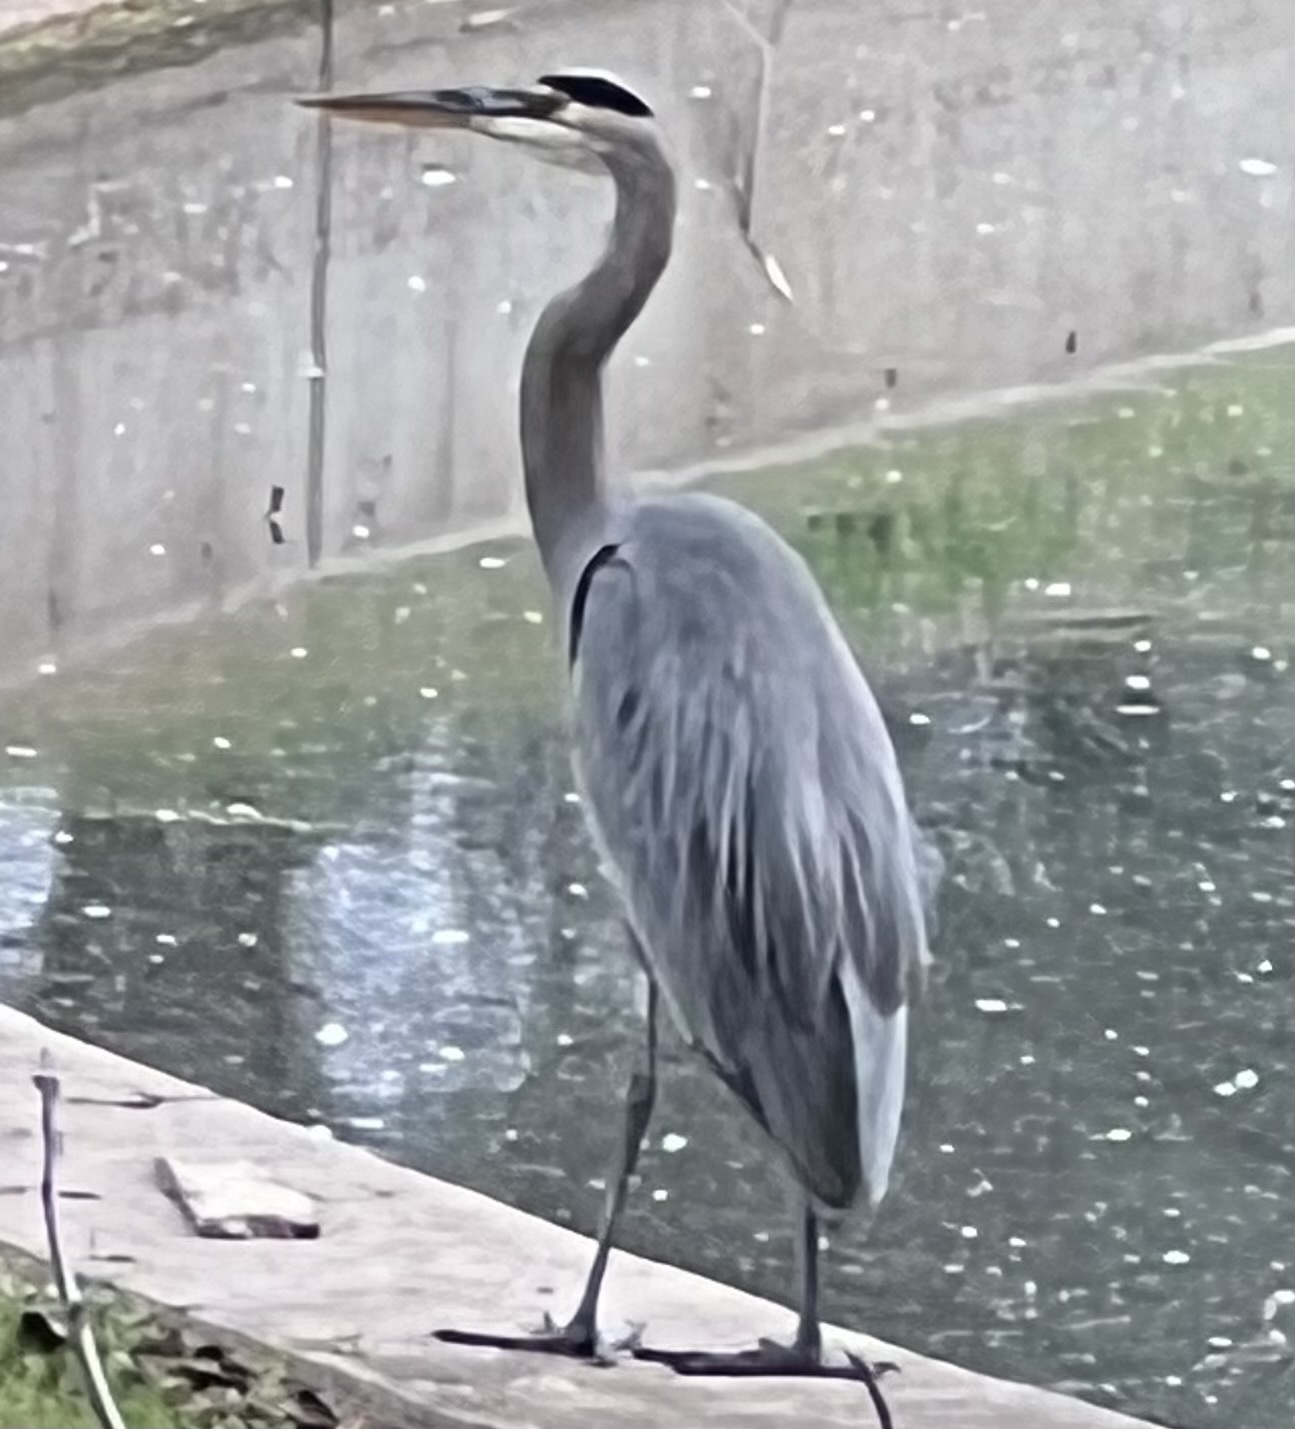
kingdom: Animalia
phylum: Chordata
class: Aves
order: Pelecaniformes
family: Ardeidae
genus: Ardea
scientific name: Ardea herodias
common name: Great blue heron
